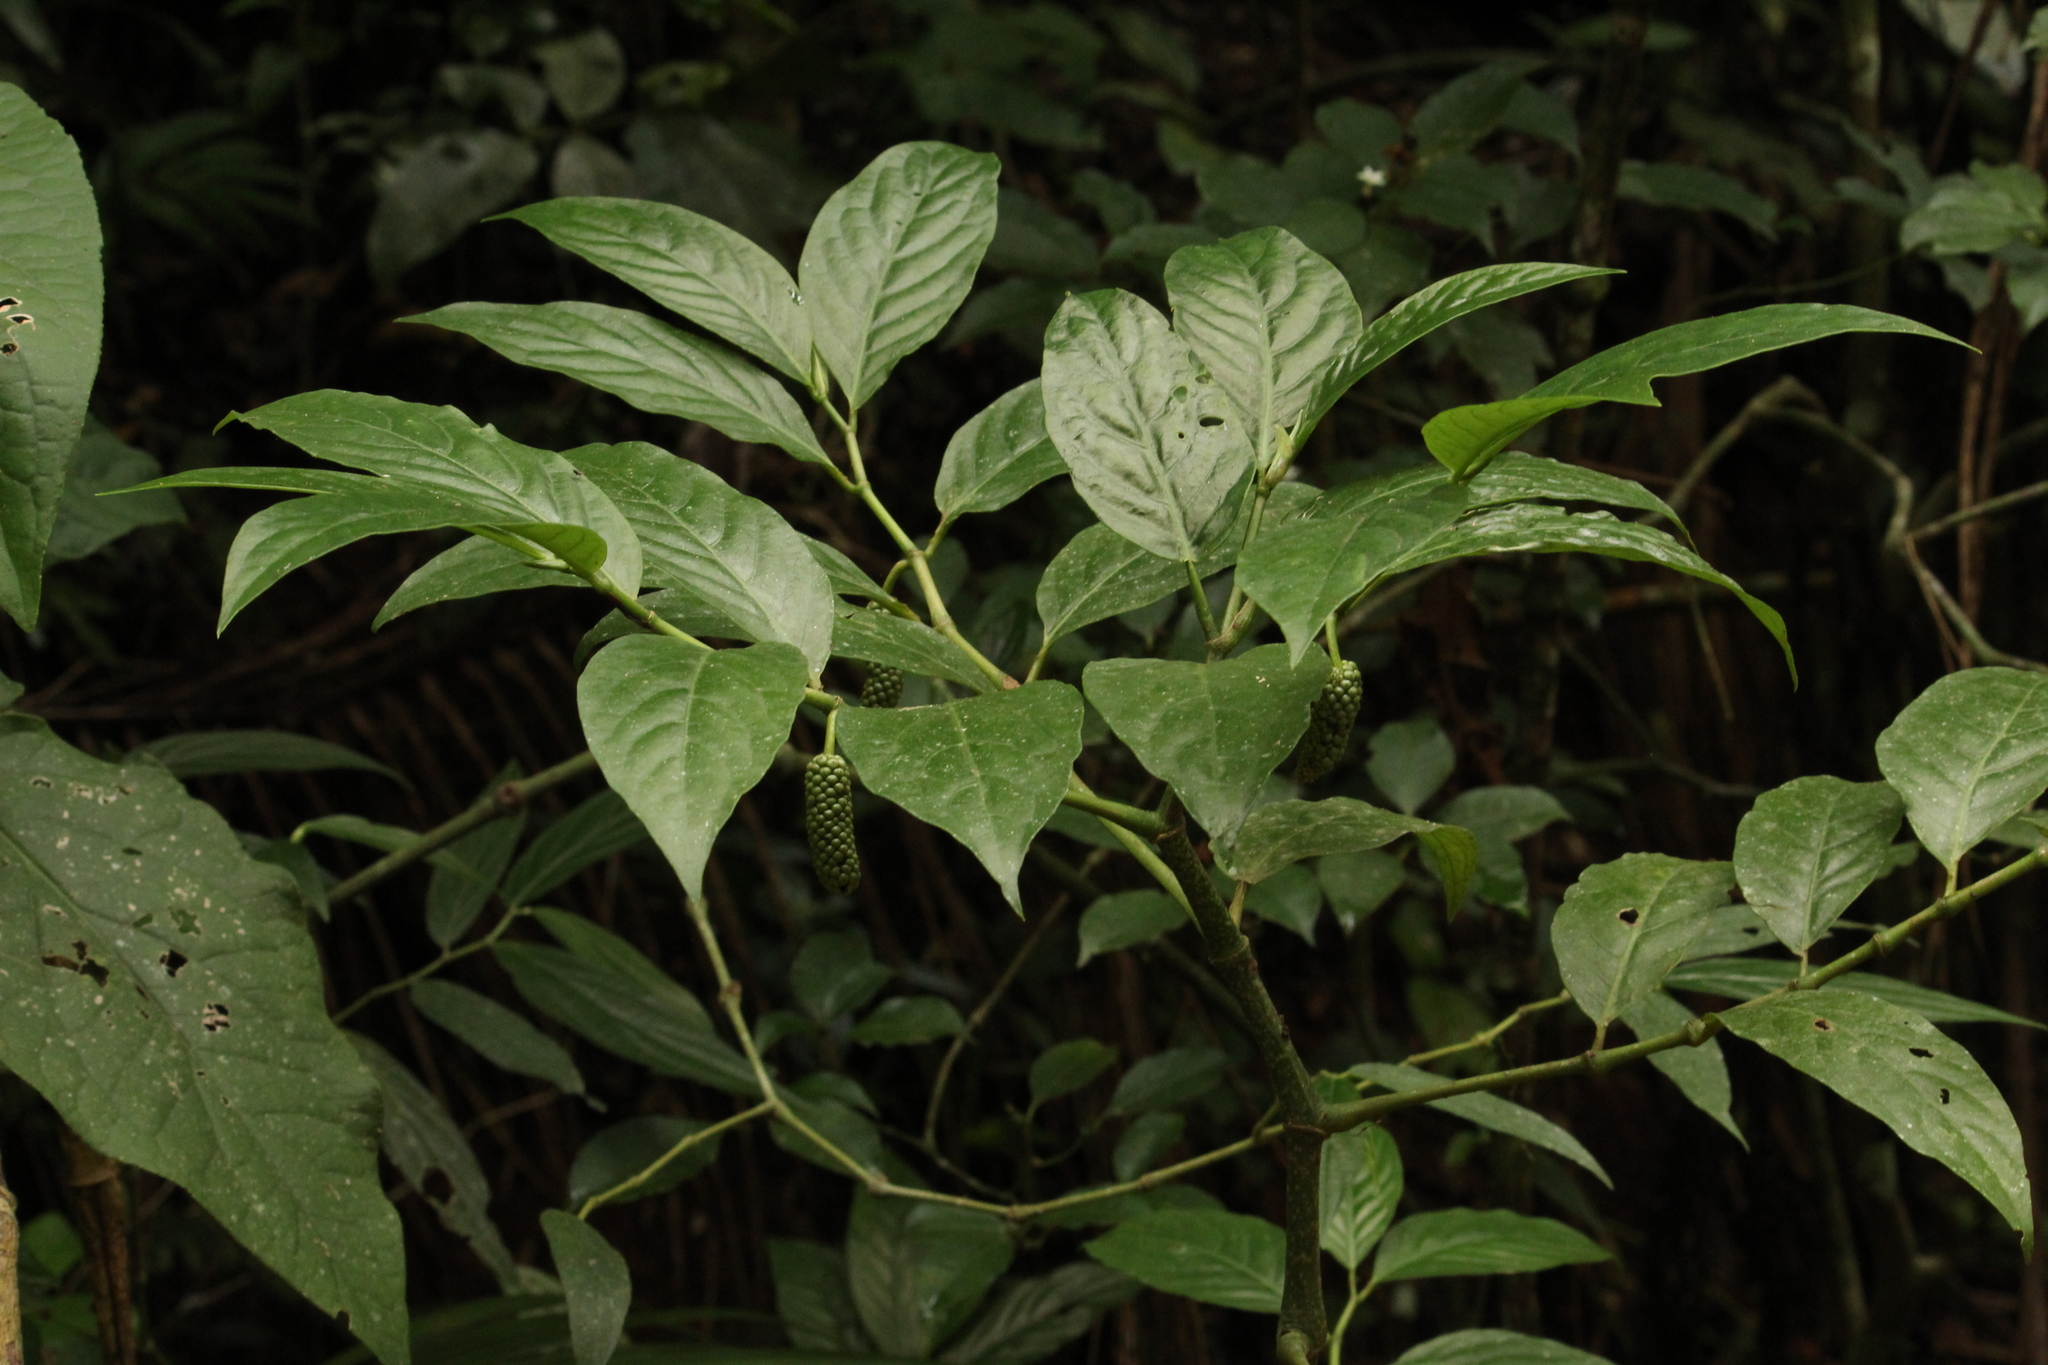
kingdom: Plantae
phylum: Tracheophyta
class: Magnoliopsida
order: Piperales
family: Piperaceae
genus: Piper
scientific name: Piper caldense
